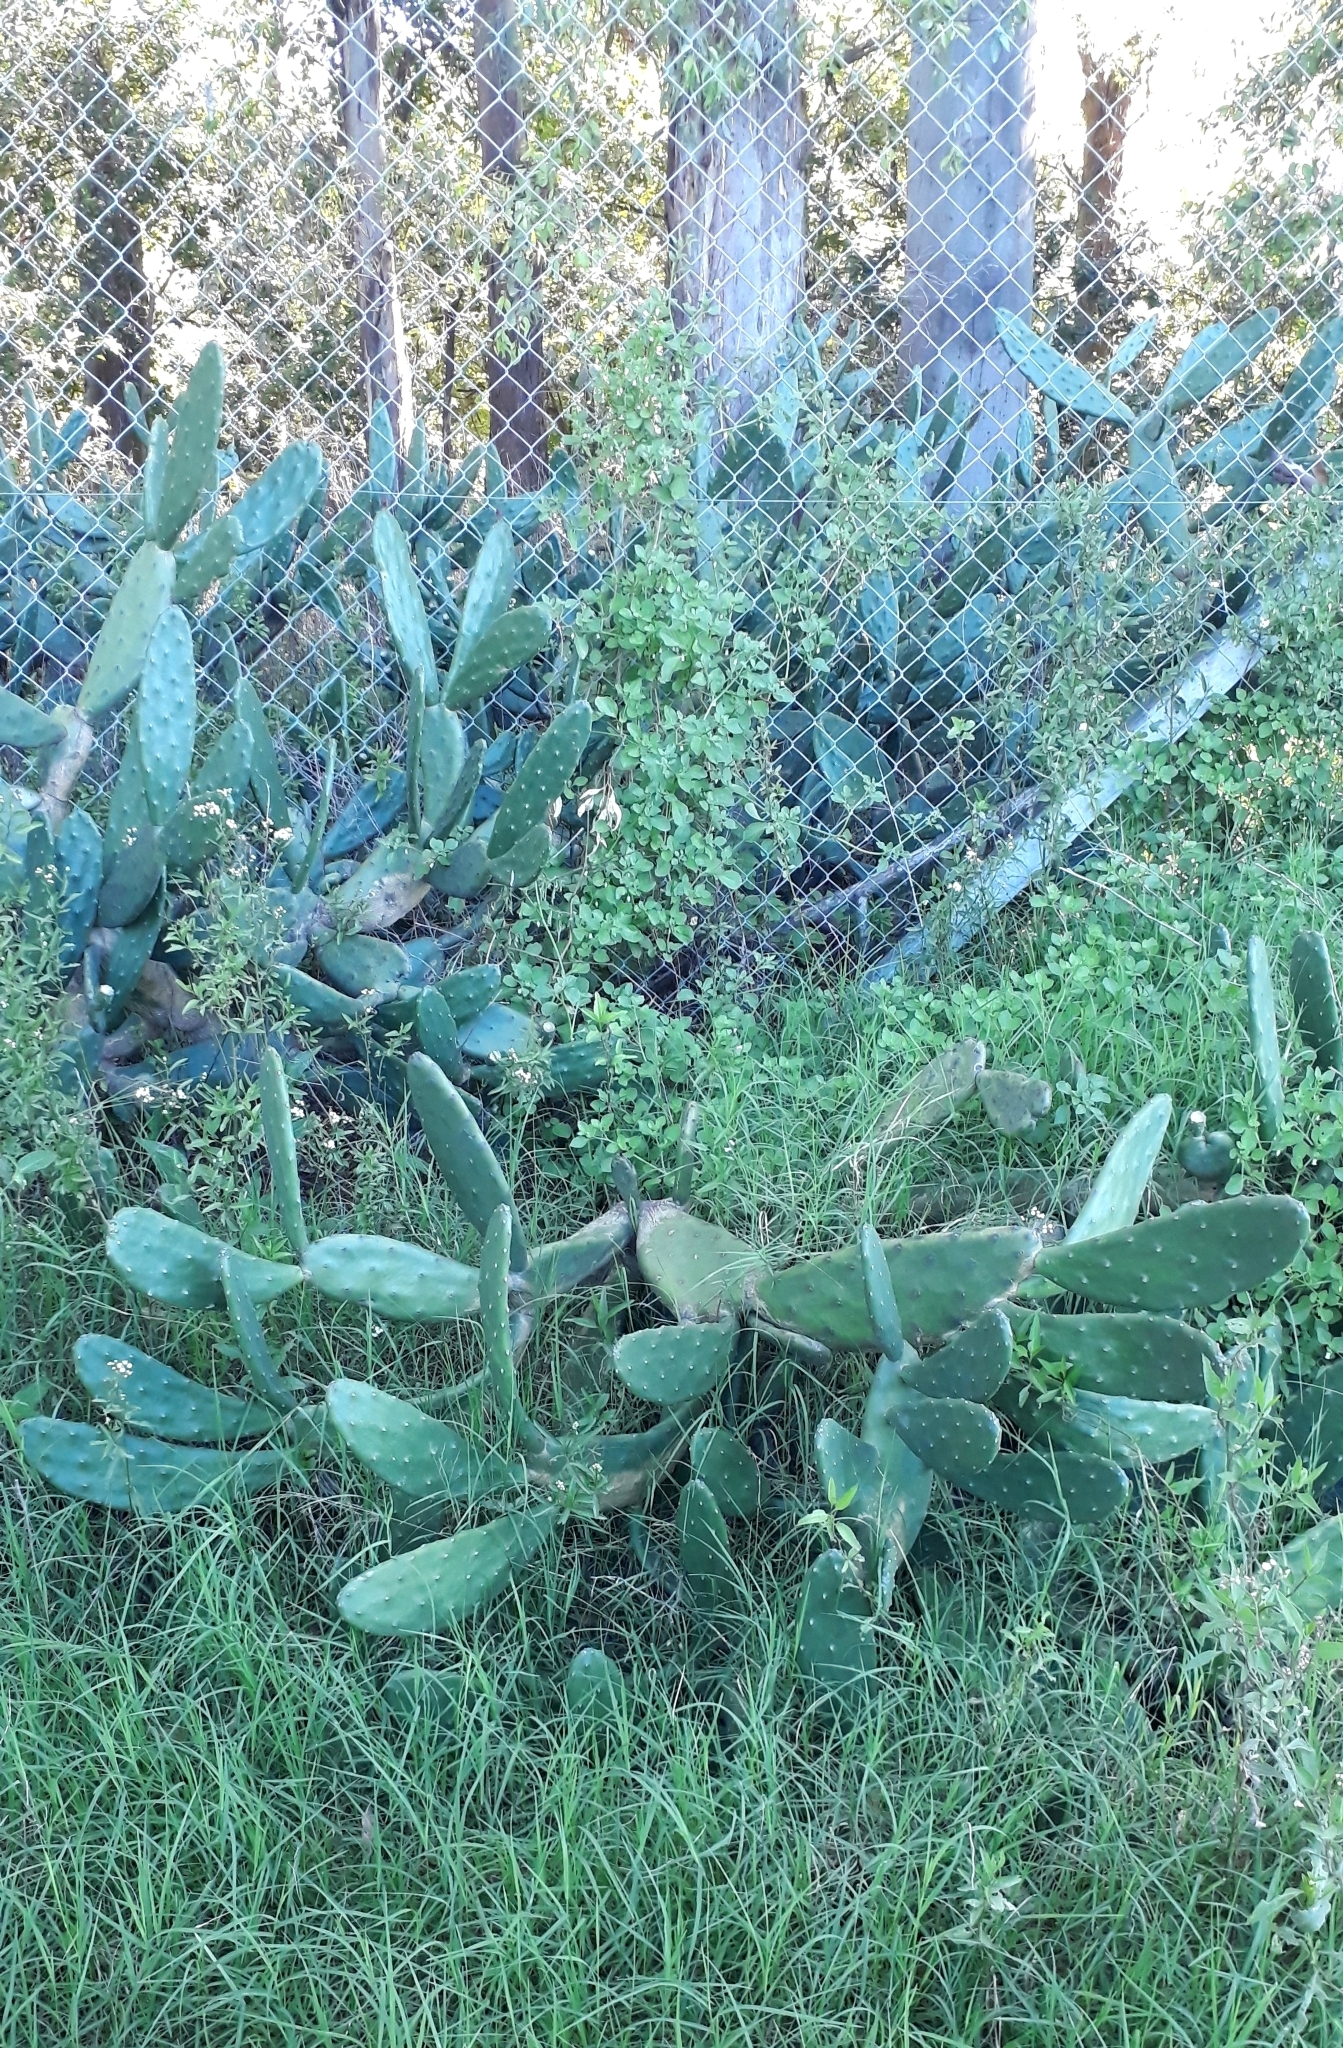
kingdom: Plantae
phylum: Tracheophyta
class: Magnoliopsida
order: Caryophyllales
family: Cactaceae
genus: Opuntia
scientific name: Opuntia elata
